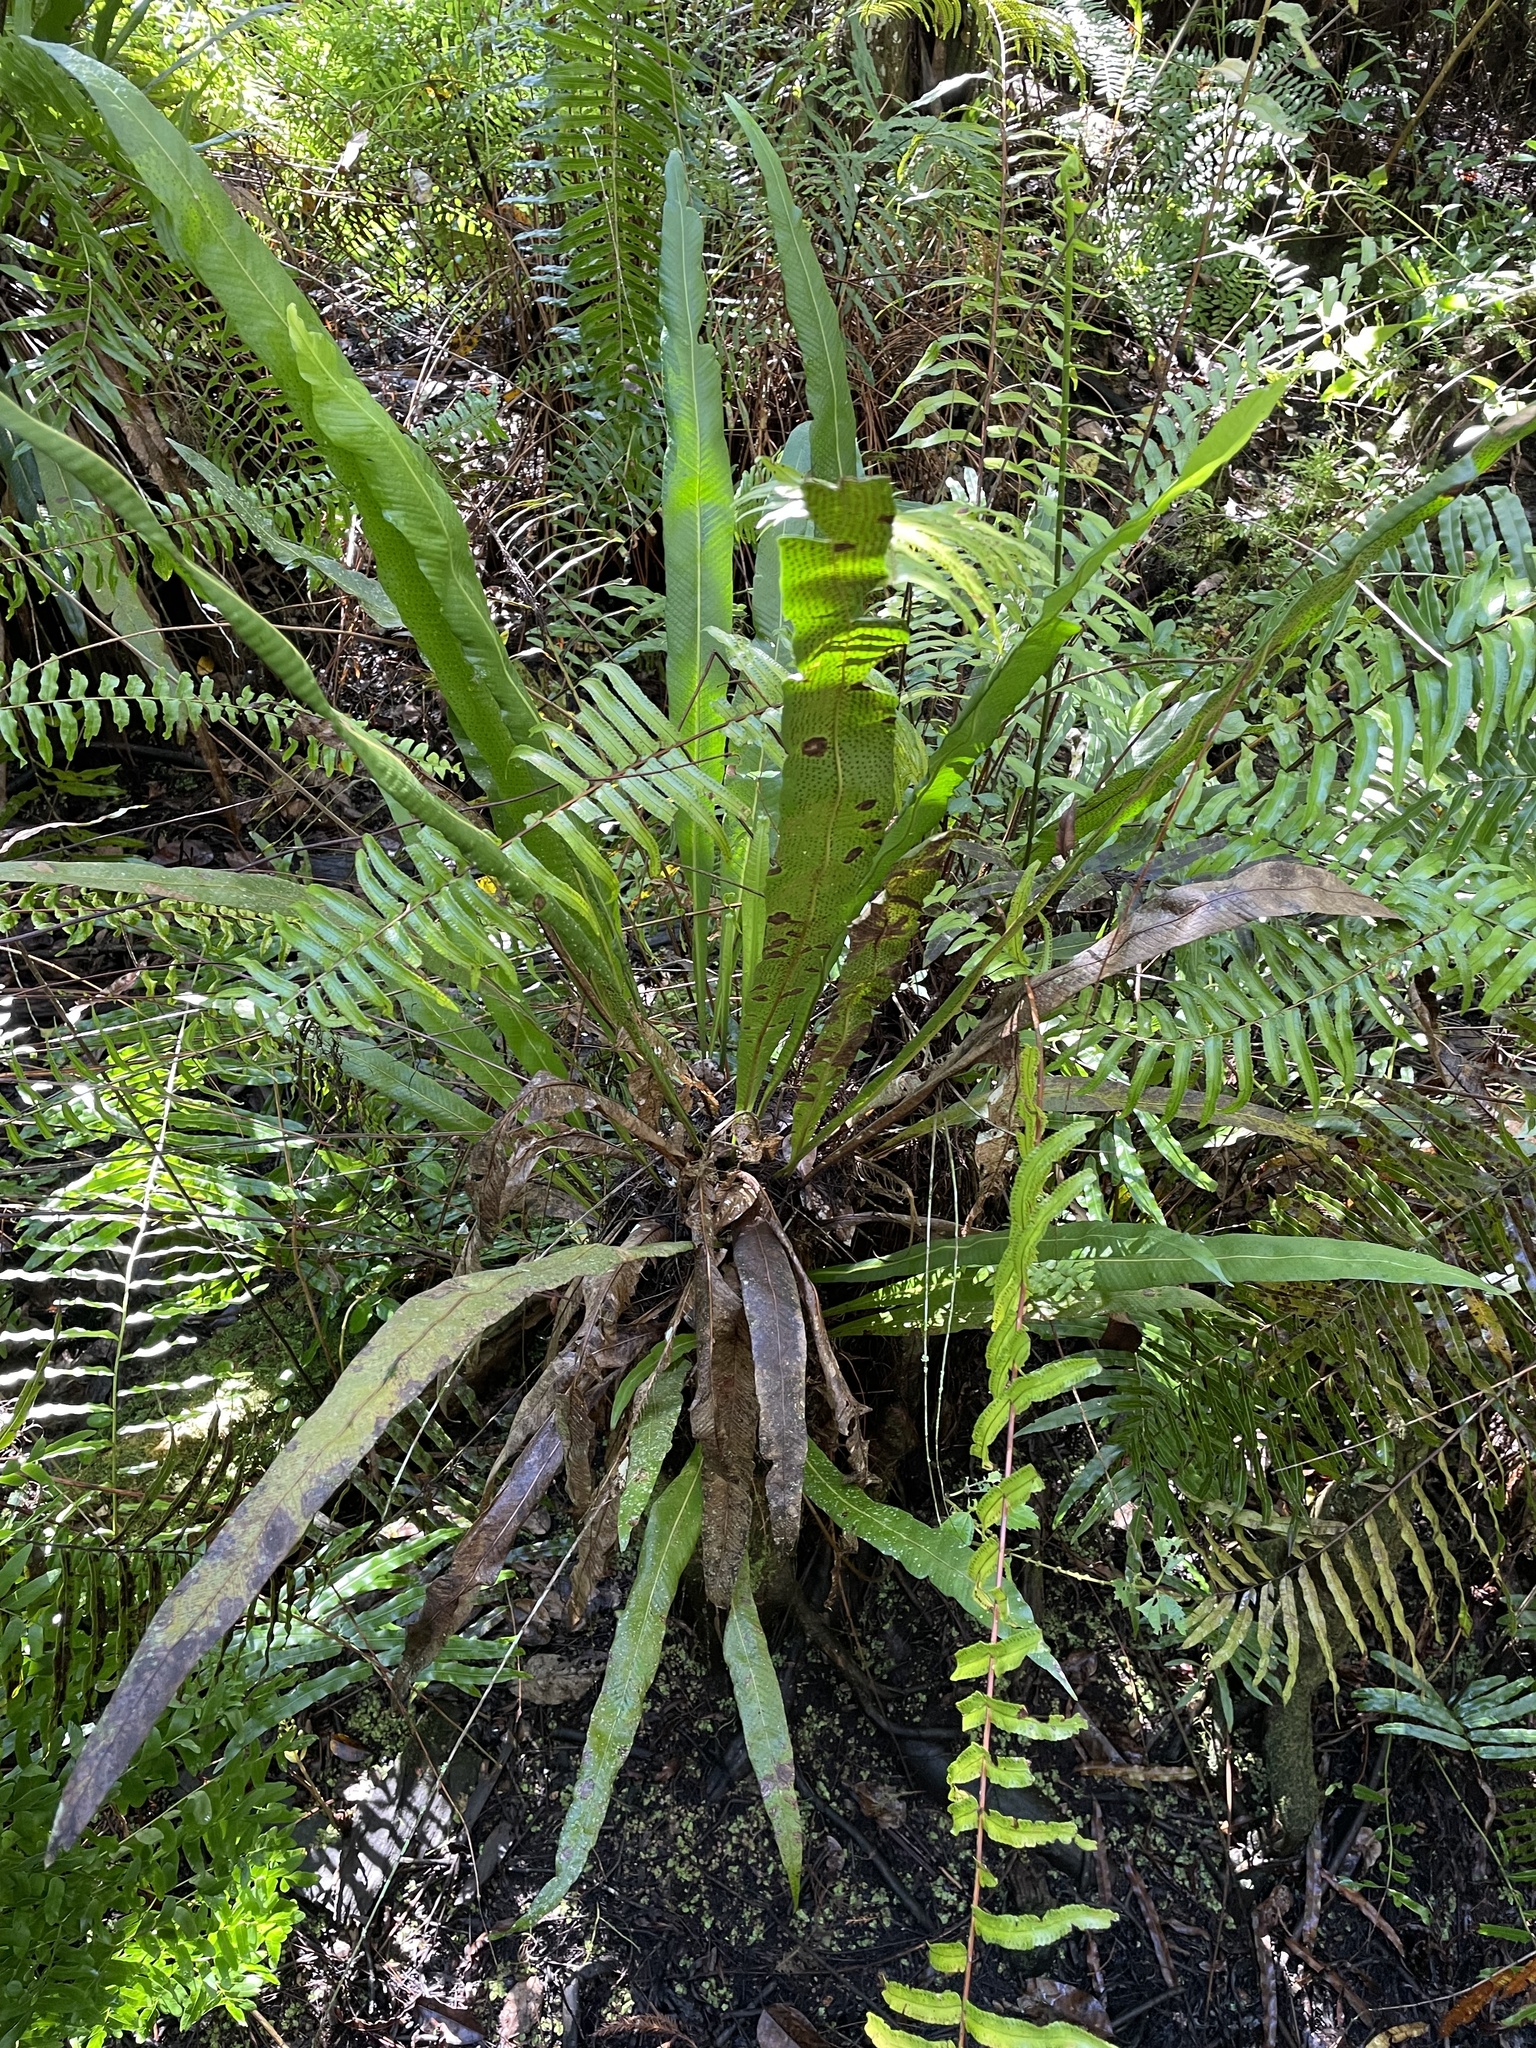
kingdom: Plantae
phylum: Tracheophyta
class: Polypodiopsida
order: Polypodiales
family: Polypodiaceae
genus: Campyloneurum
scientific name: Campyloneurum phyllitidis
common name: Cow-tongue fern
